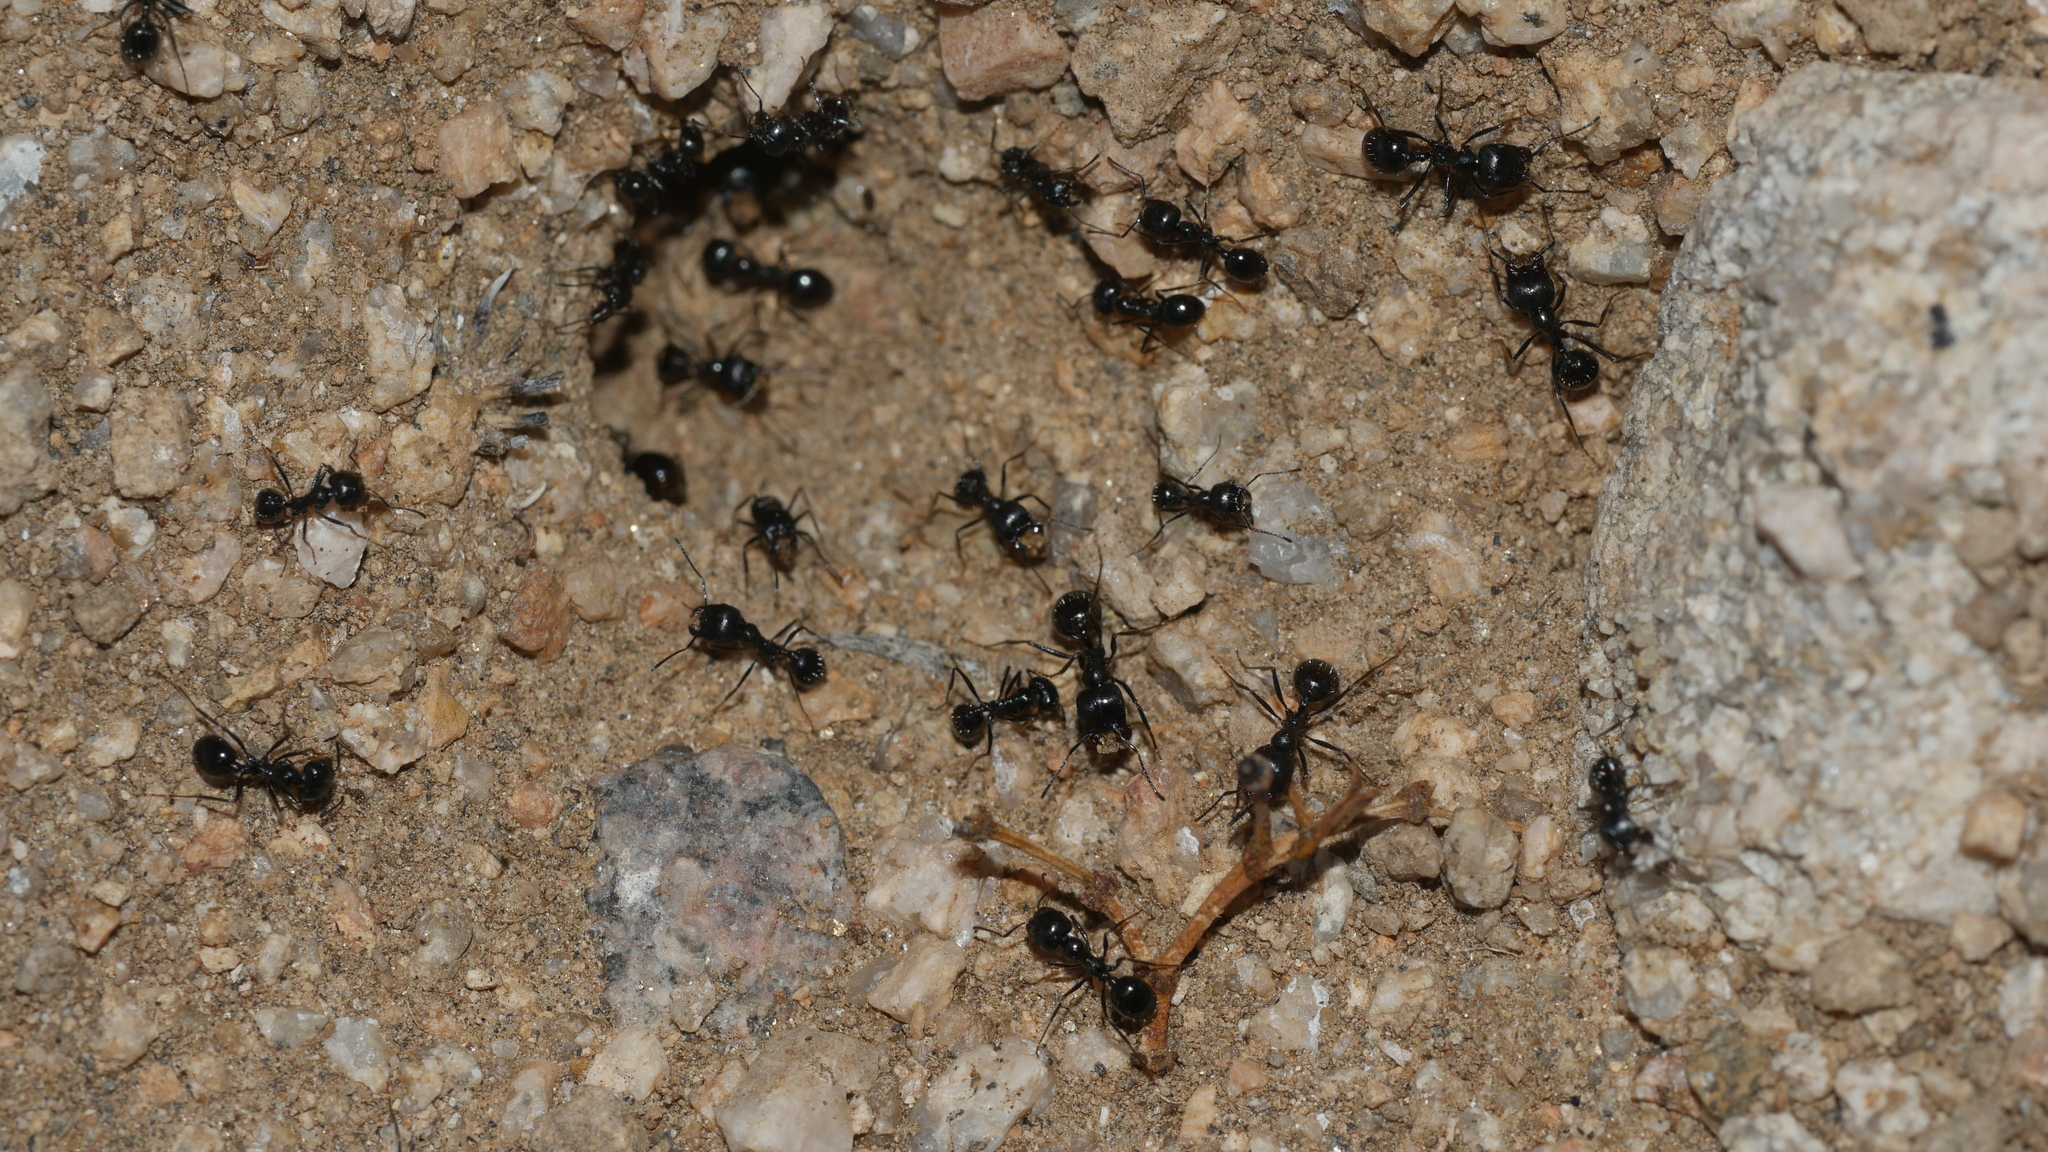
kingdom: Animalia
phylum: Arthropoda
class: Insecta
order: Hymenoptera
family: Formicidae
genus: Messor
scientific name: Messor pergandei
